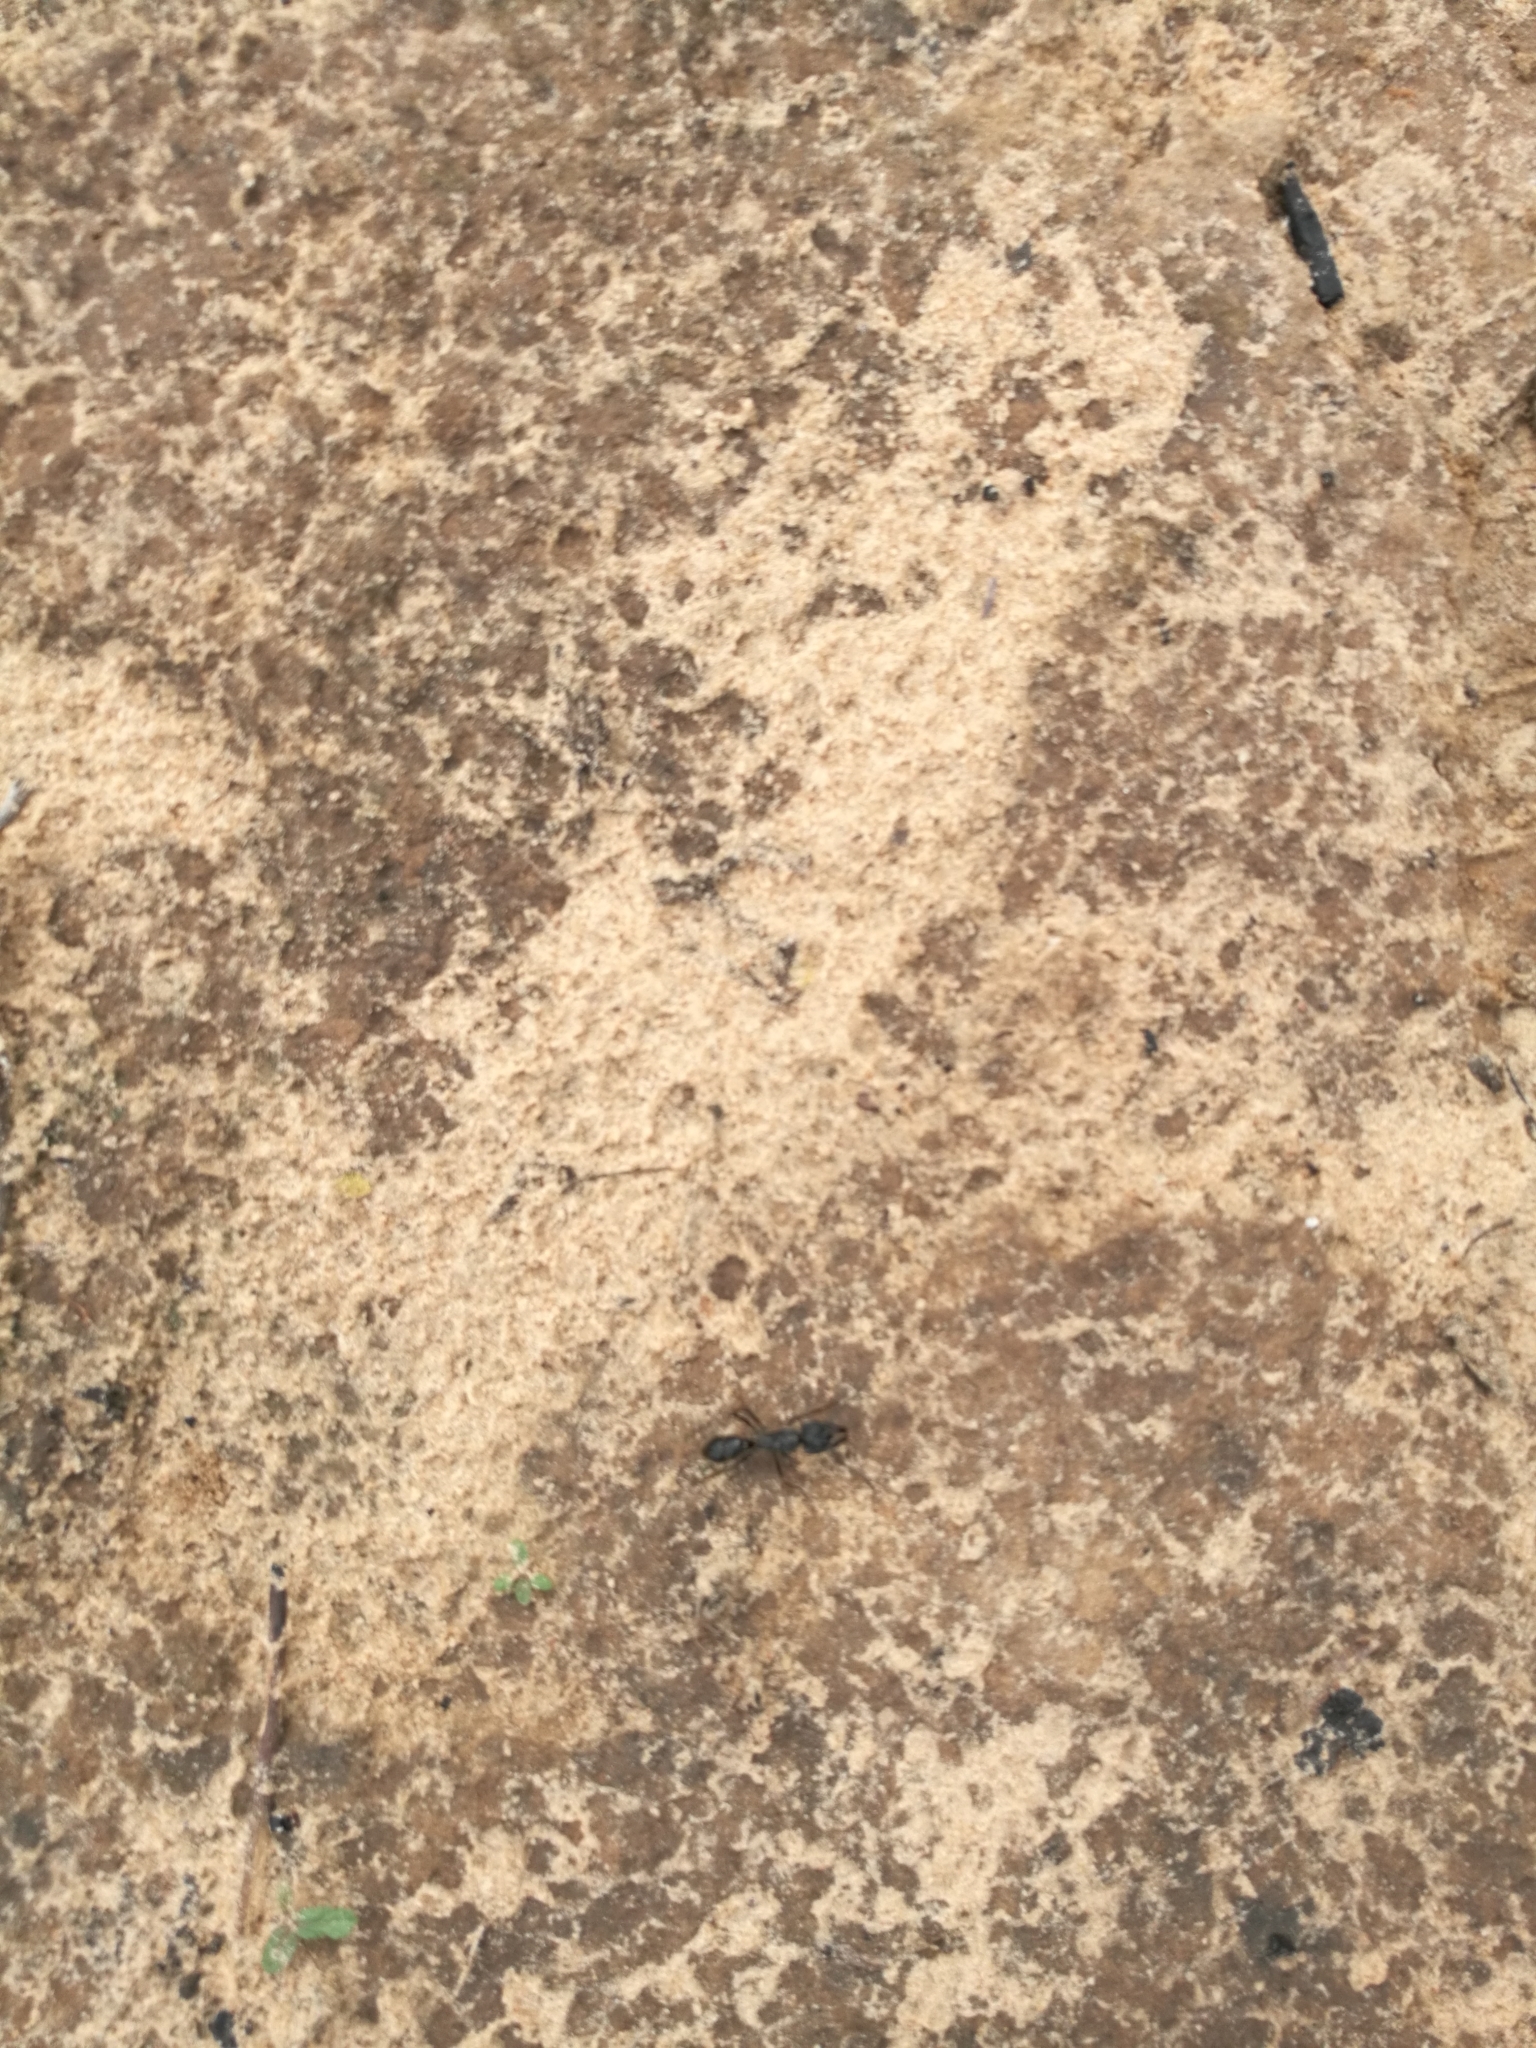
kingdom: Animalia
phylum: Arthropoda
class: Insecta
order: Hymenoptera
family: Formicidae
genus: Paltothyreus
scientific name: Paltothyreus tarsatus
